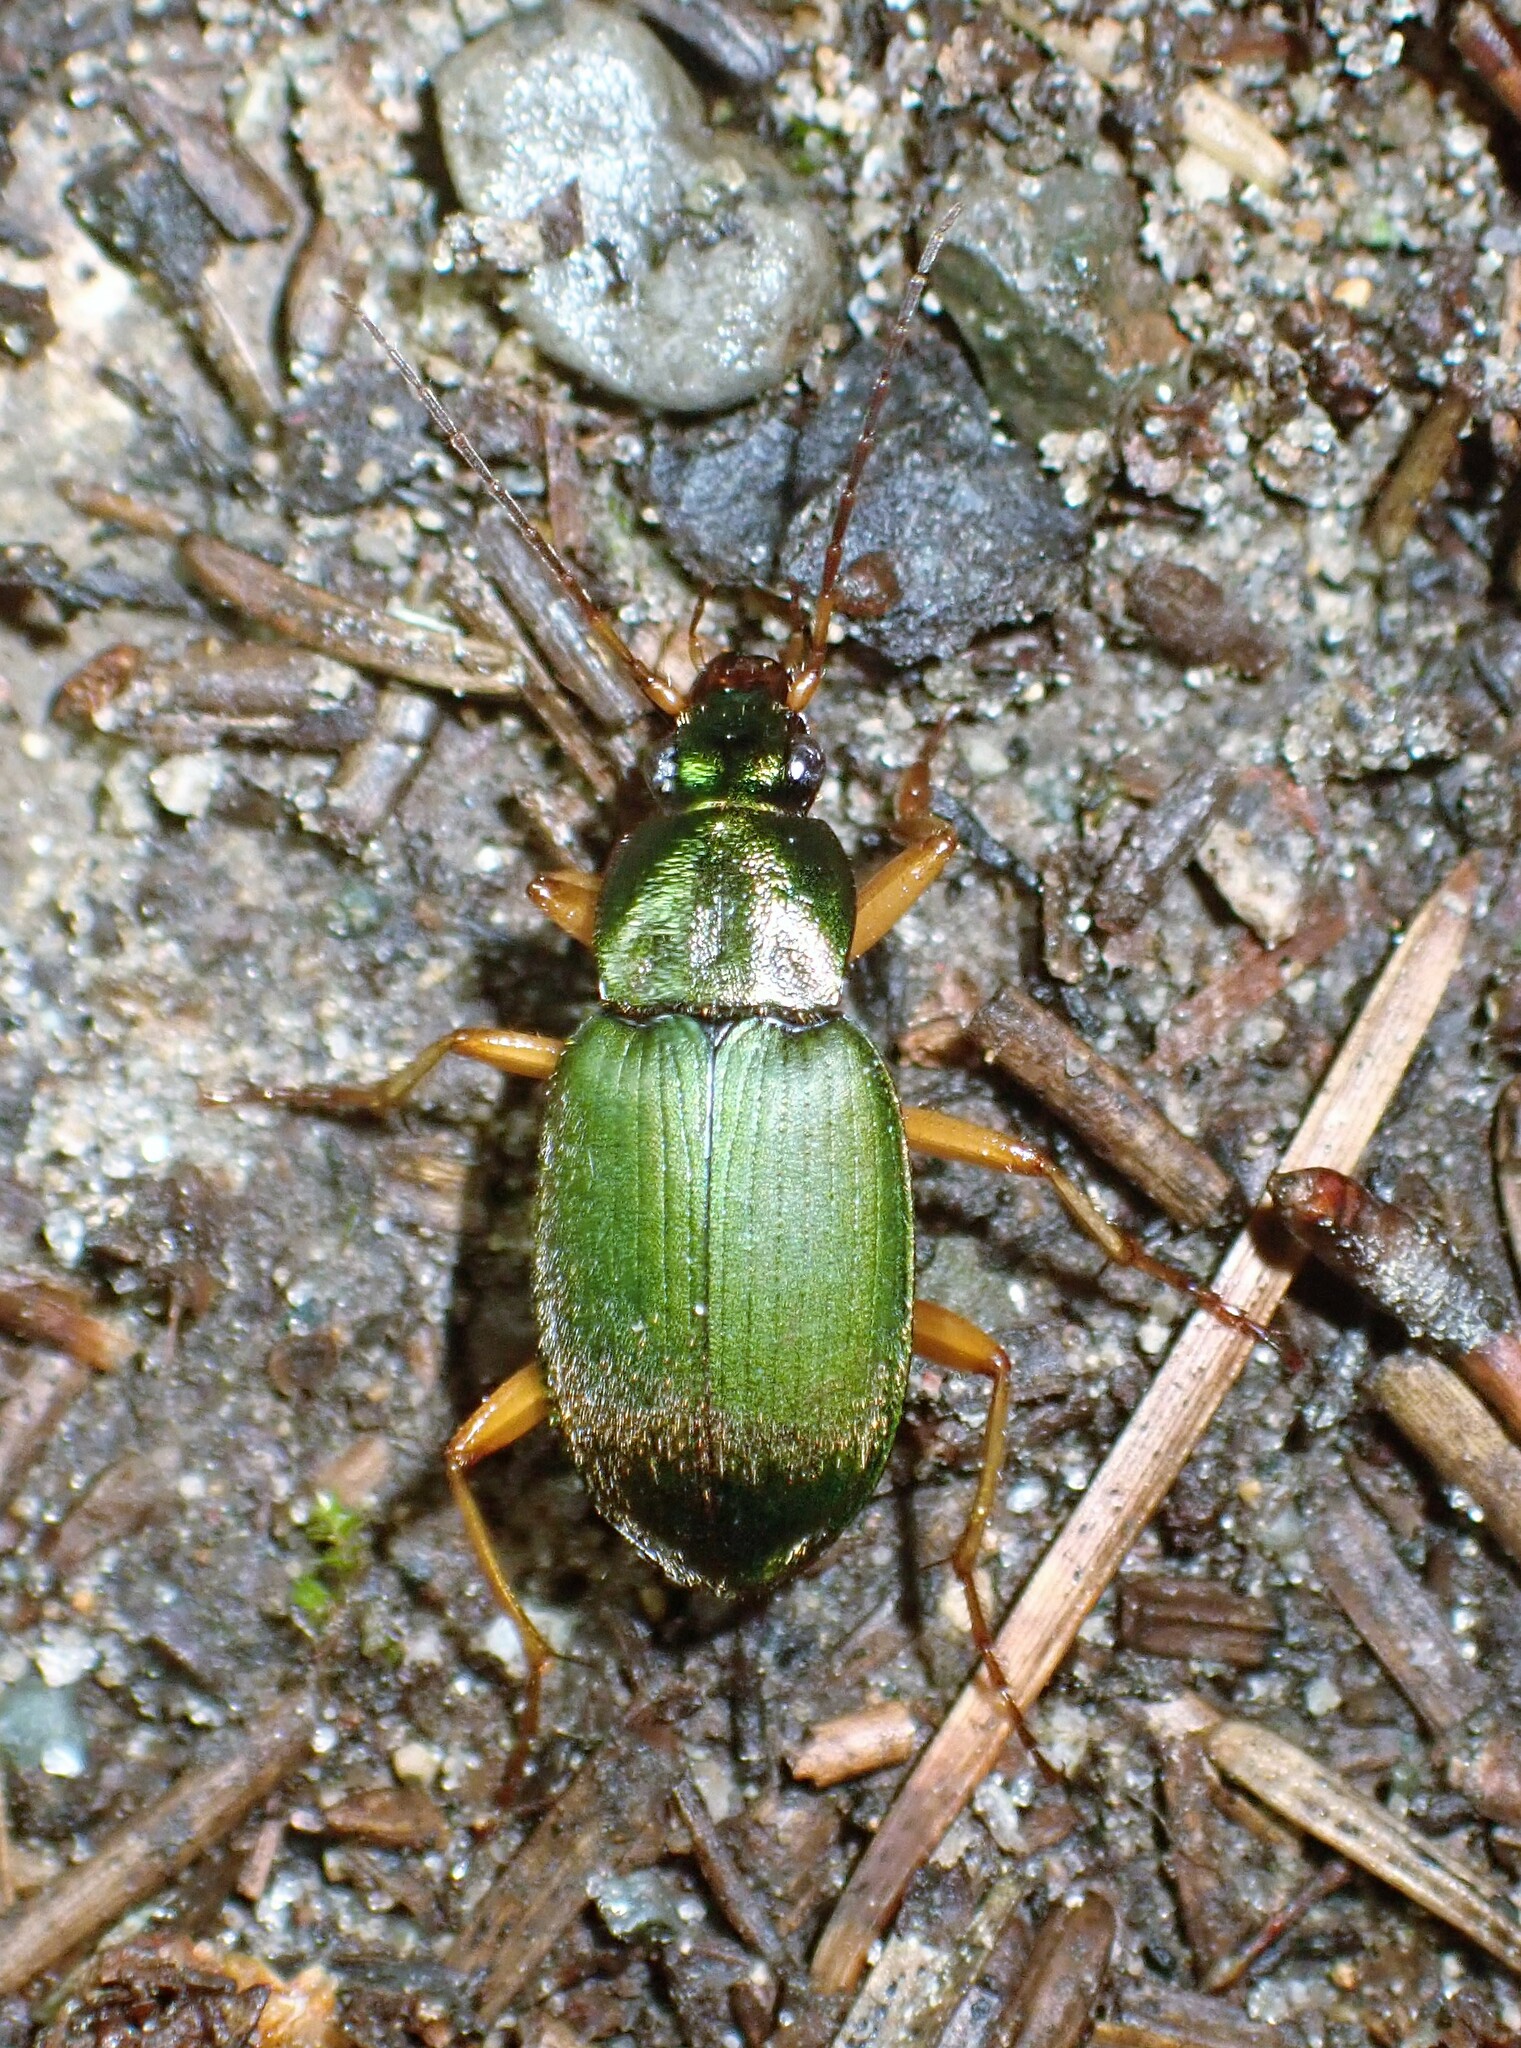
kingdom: Animalia
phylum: Arthropoda
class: Insecta
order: Coleoptera
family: Carabidae
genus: Chlaenius
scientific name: Chlaenius sericeus
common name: Green pubescent ground beetle
